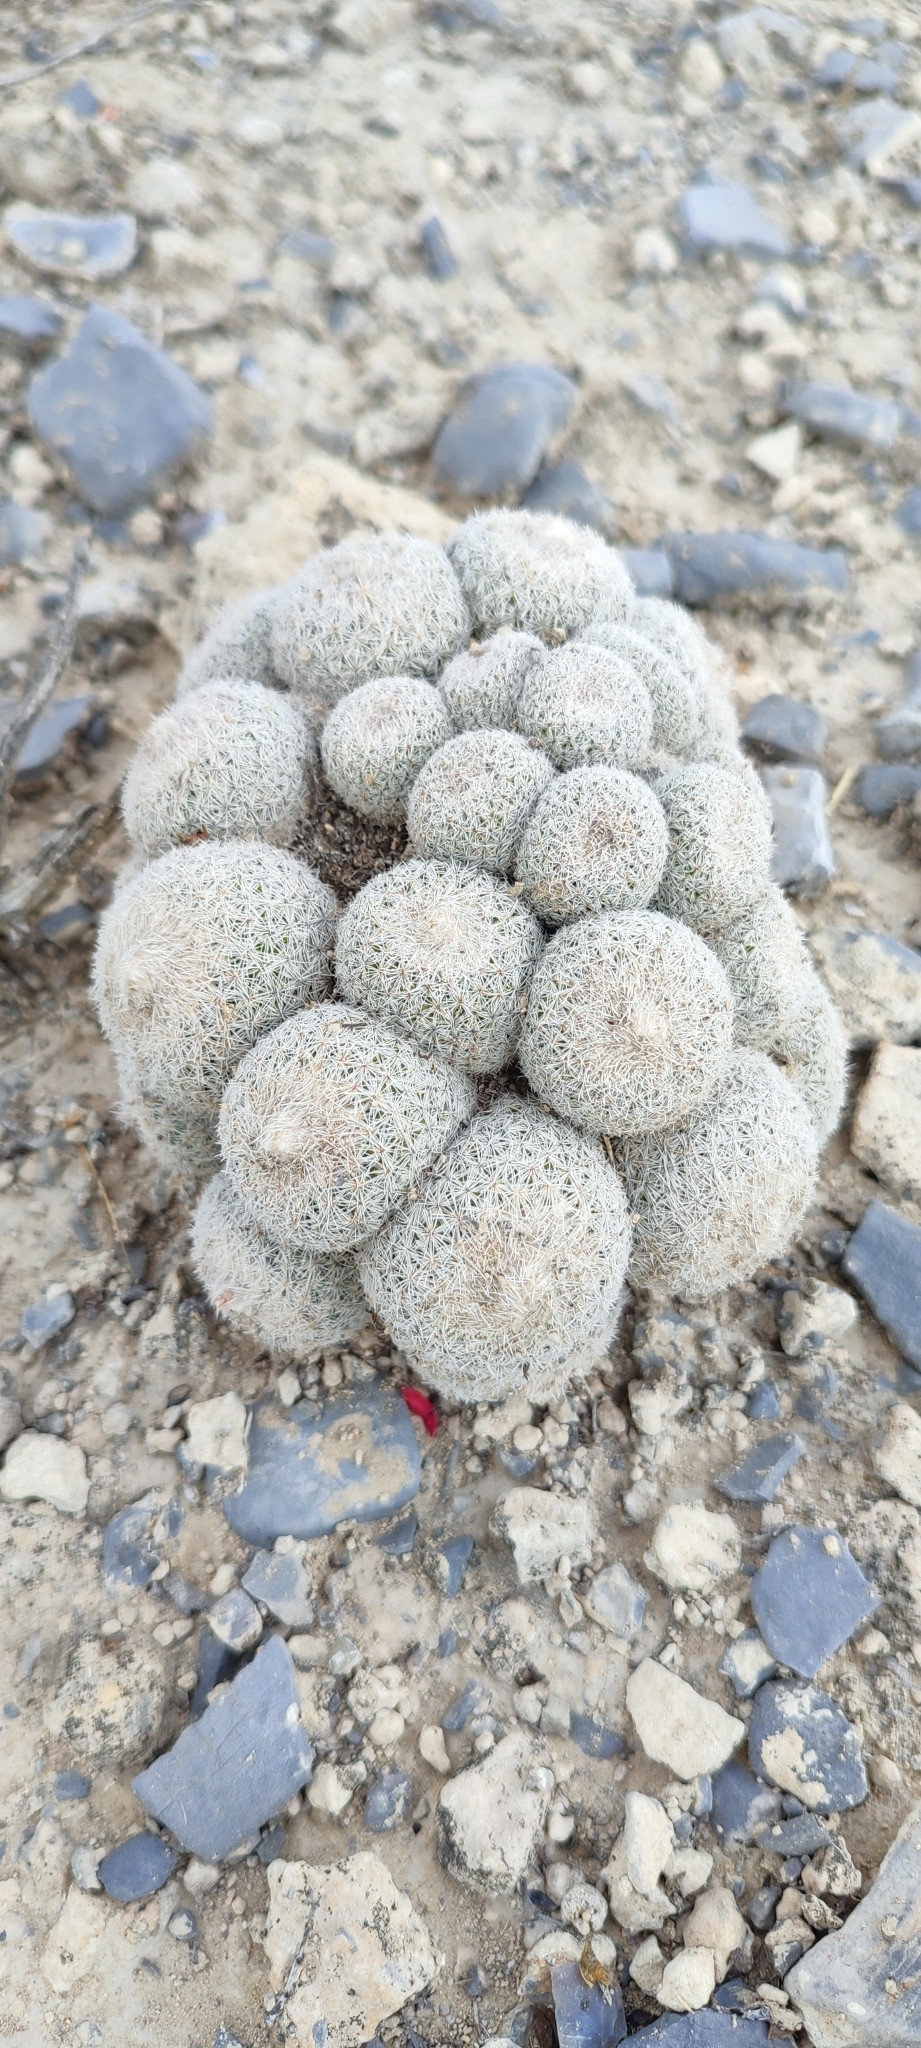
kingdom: Plantae
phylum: Tracheophyta
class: Magnoliopsida
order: Caryophyllales
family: Cactaceae
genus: Epithelantha
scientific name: Epithelantha greggii
